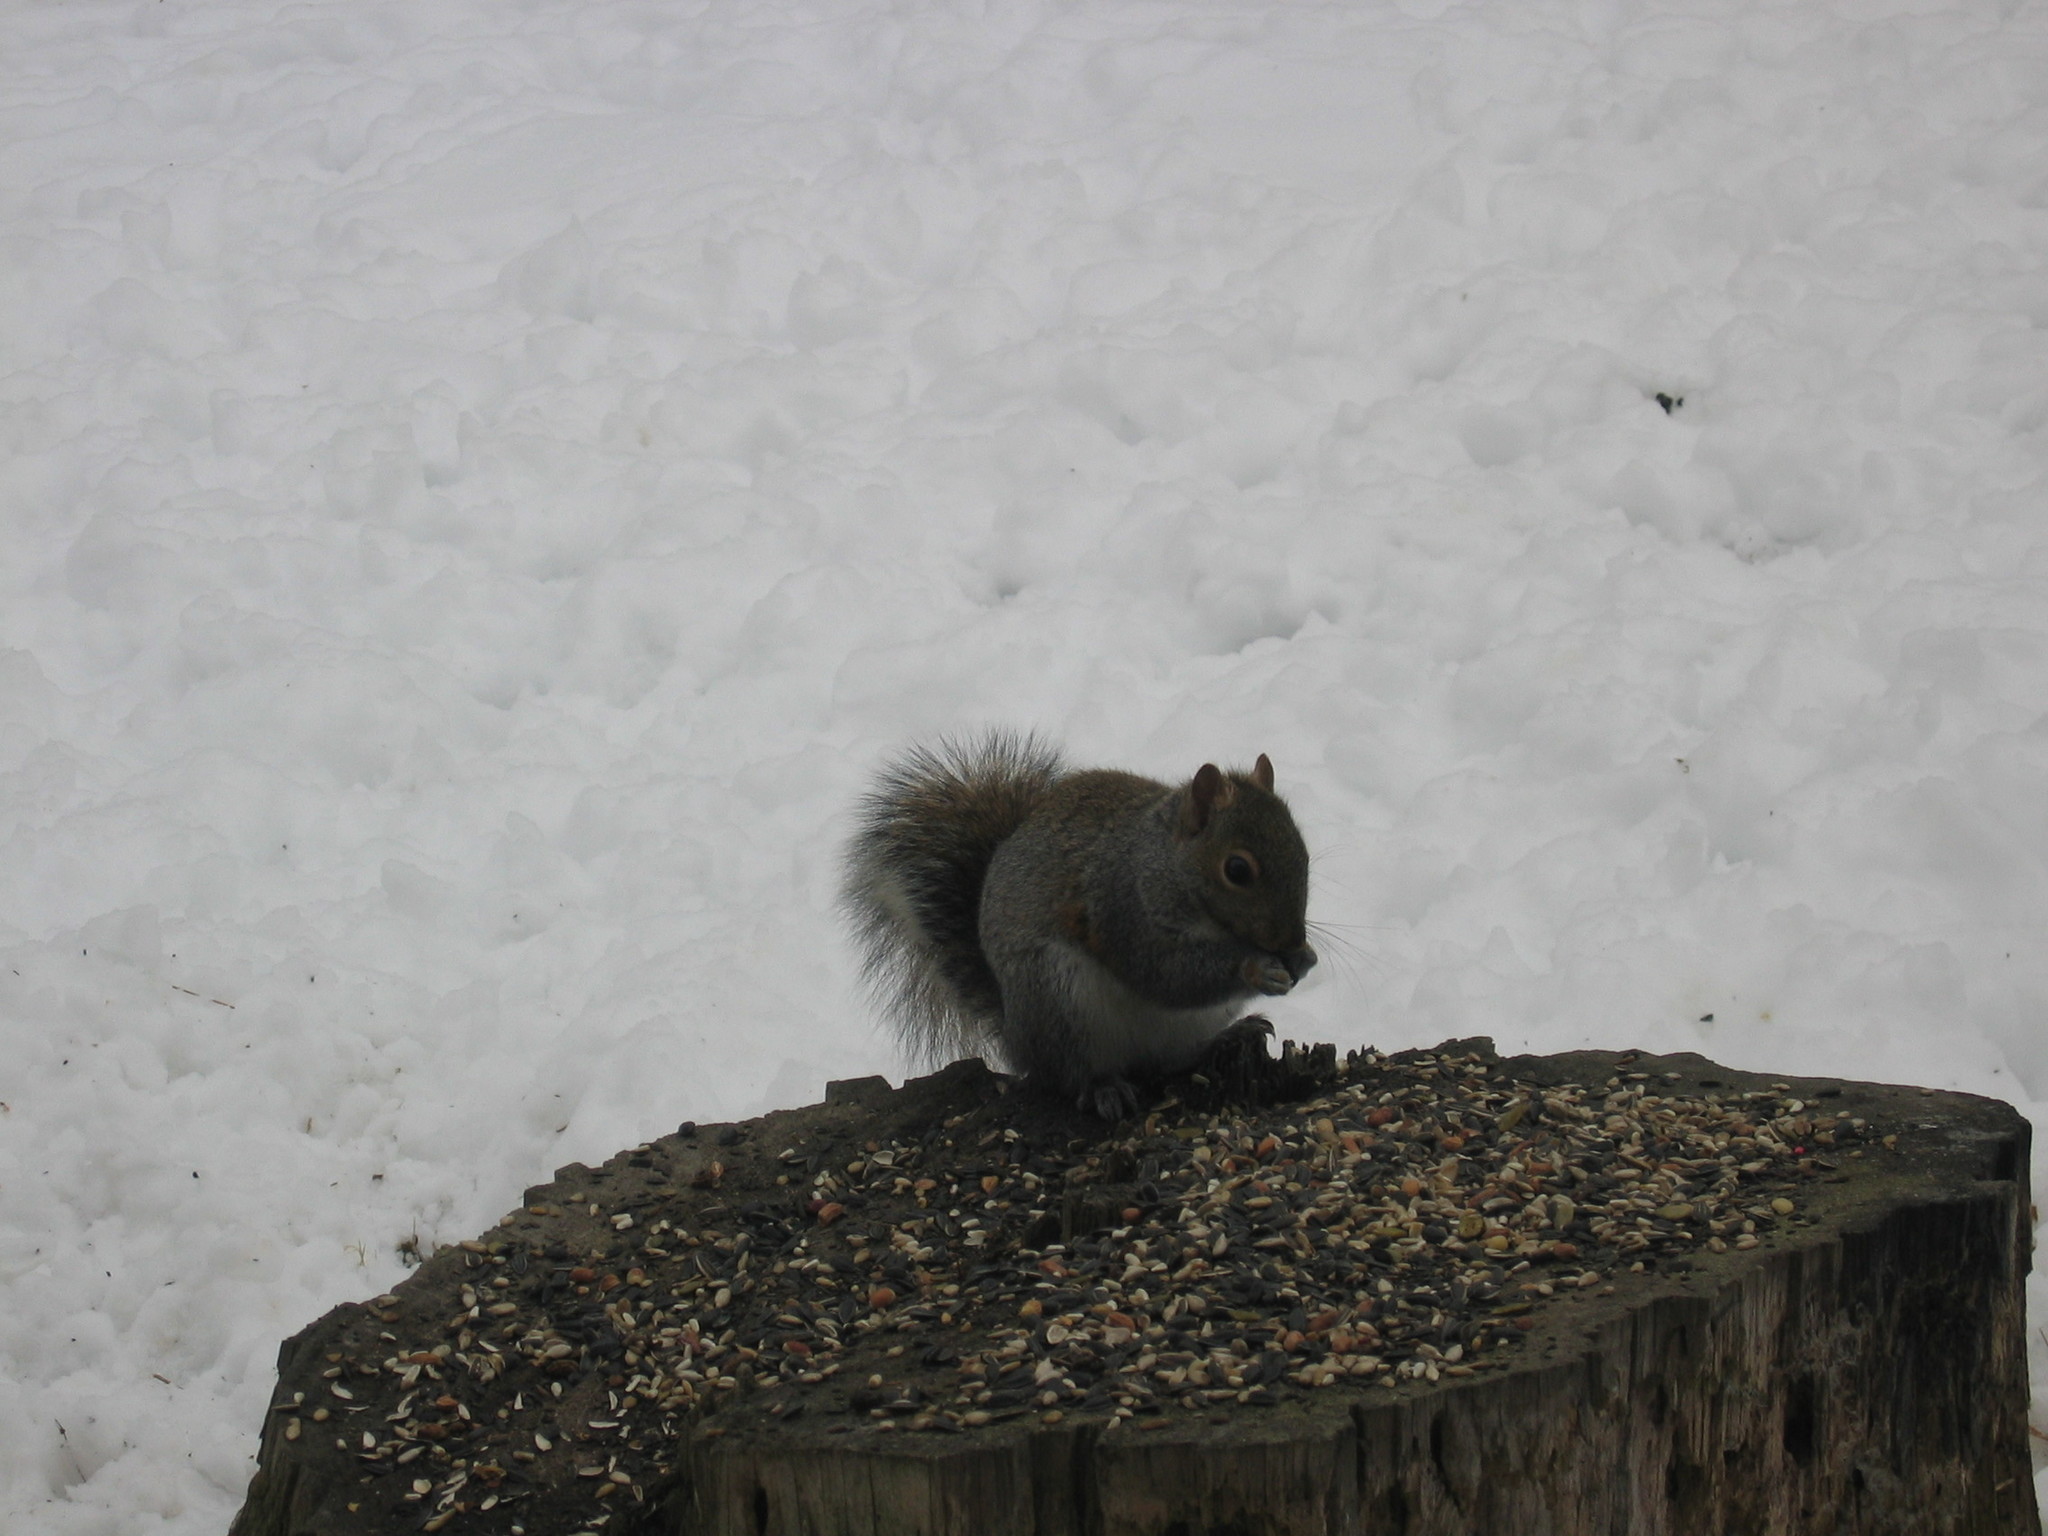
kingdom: Animalia
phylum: Chordata
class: Mammalia
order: Rodentia
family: Sciuridae
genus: Sciurus
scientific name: Sciurus carolinensis
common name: Eastern gray squirrel
